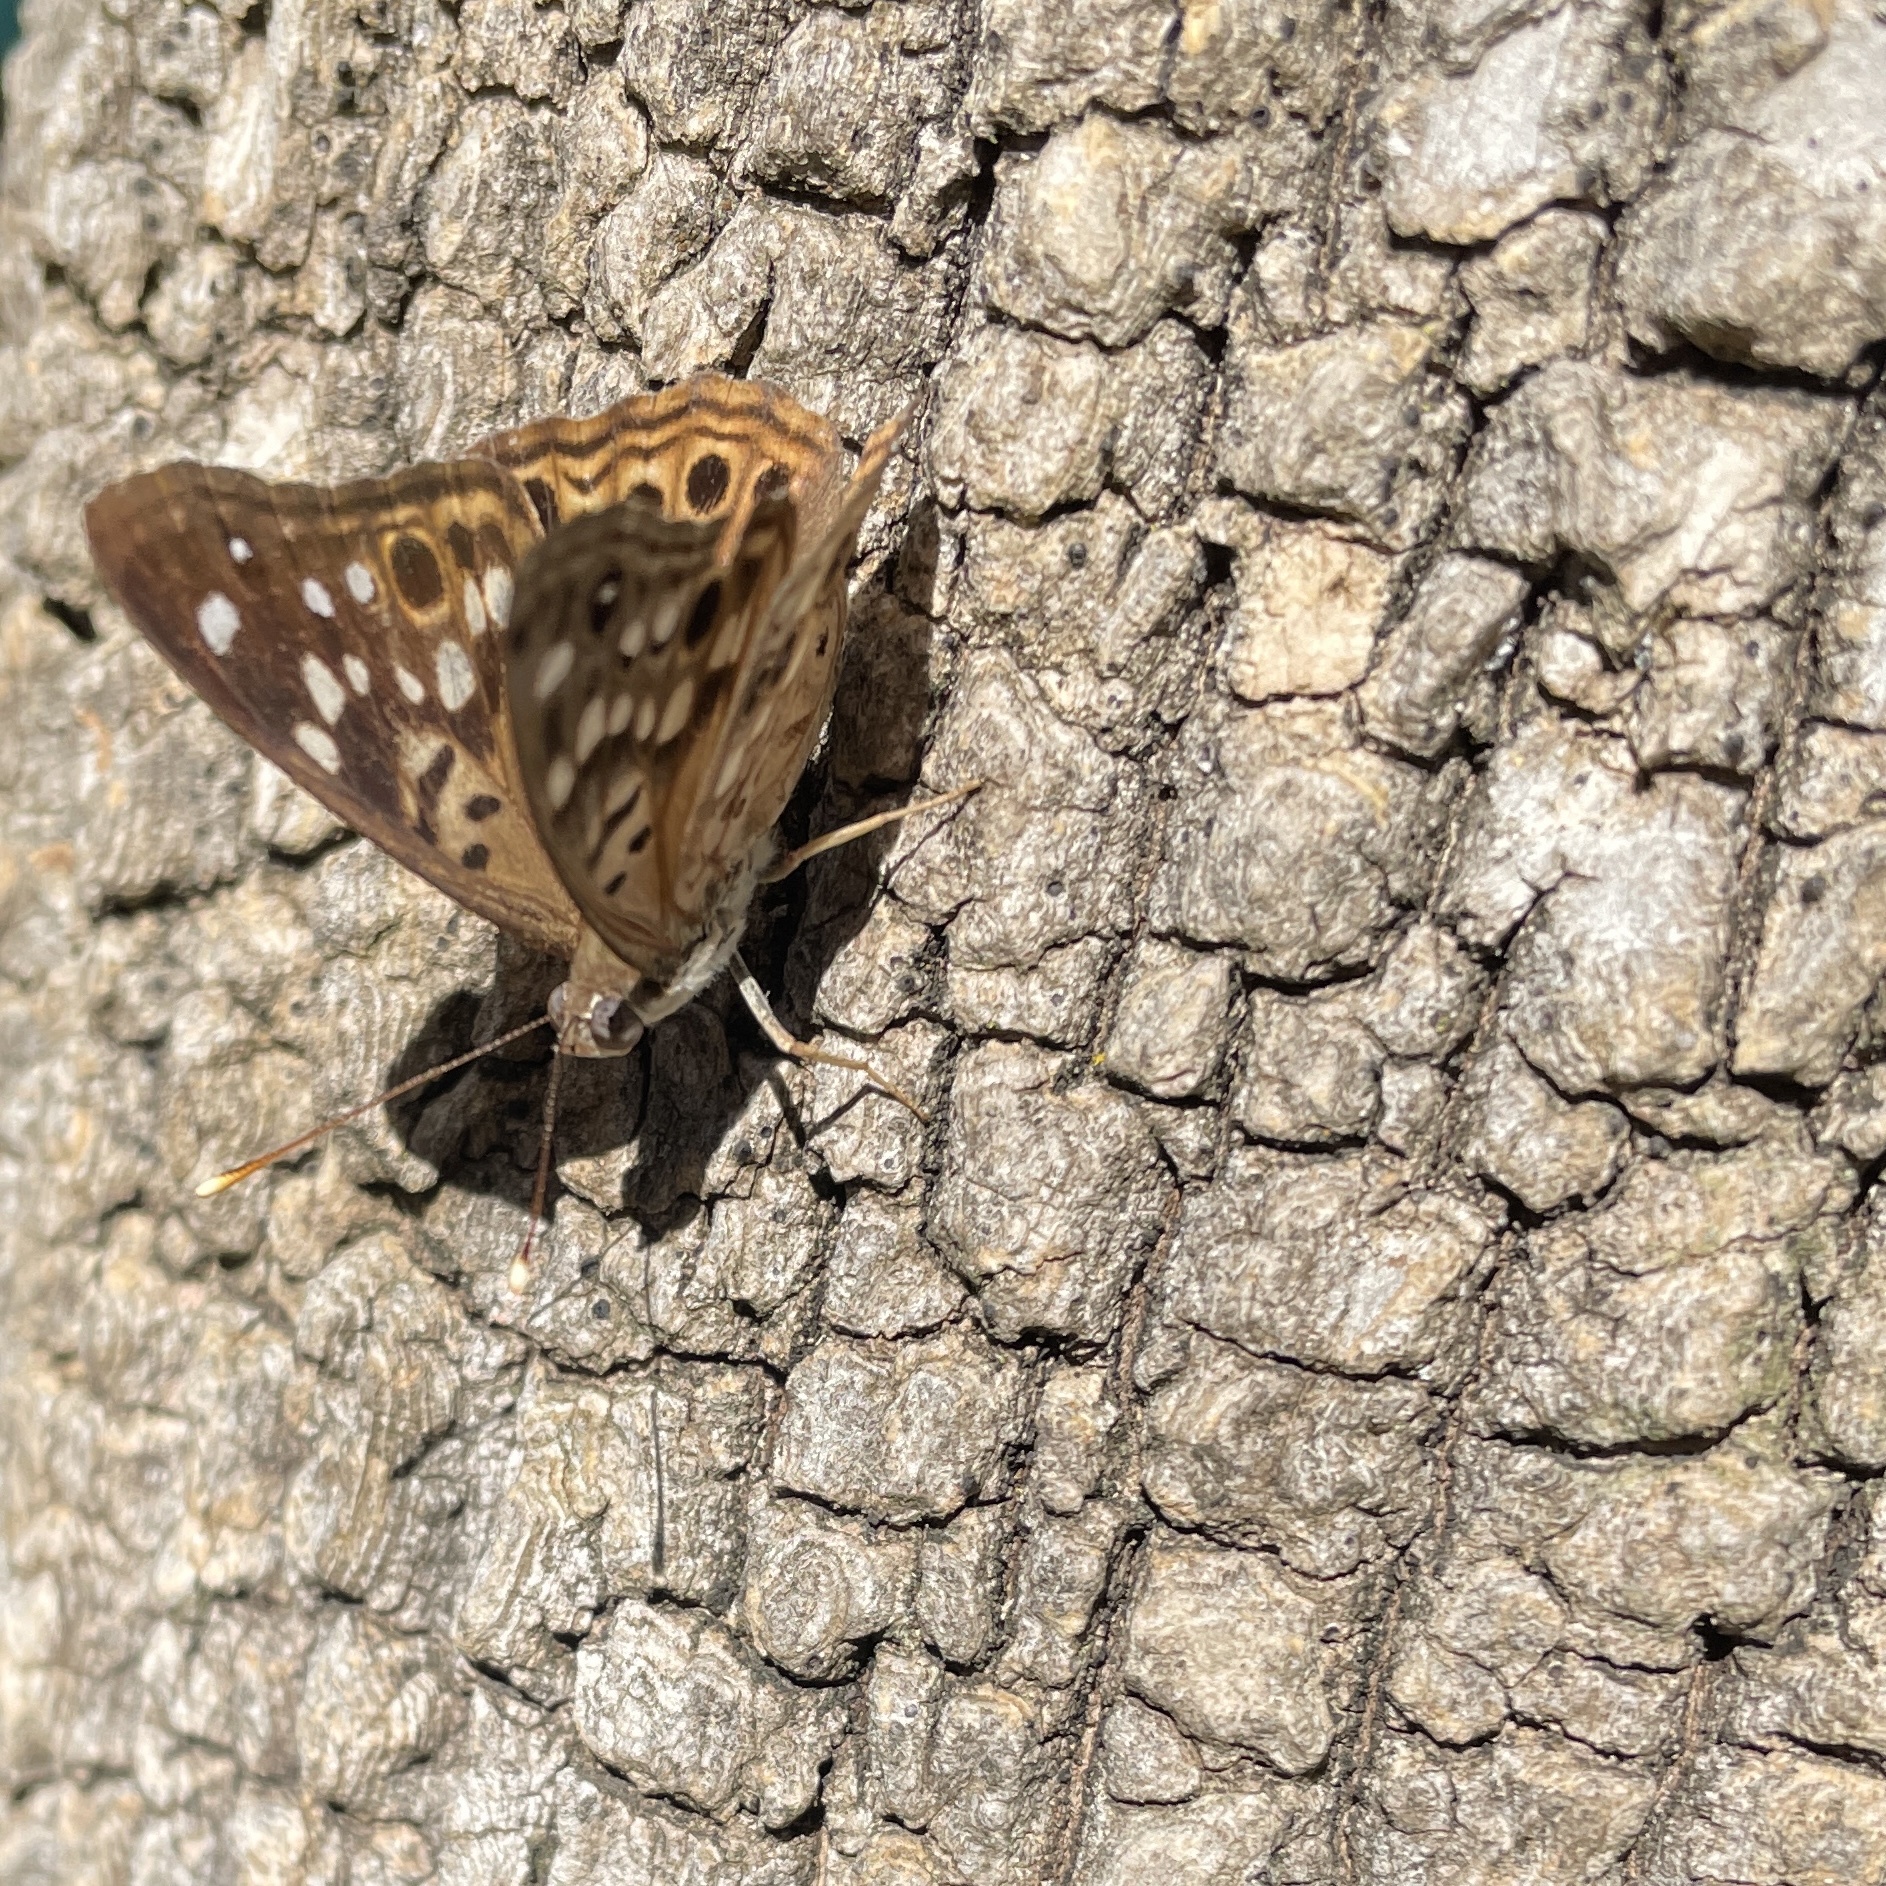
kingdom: Animalia
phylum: Arthropoda
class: Insecta
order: Lepidoptera
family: Nymphalidae
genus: Asterocampa
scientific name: Asterocampa celtis
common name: Hackberry emperor
